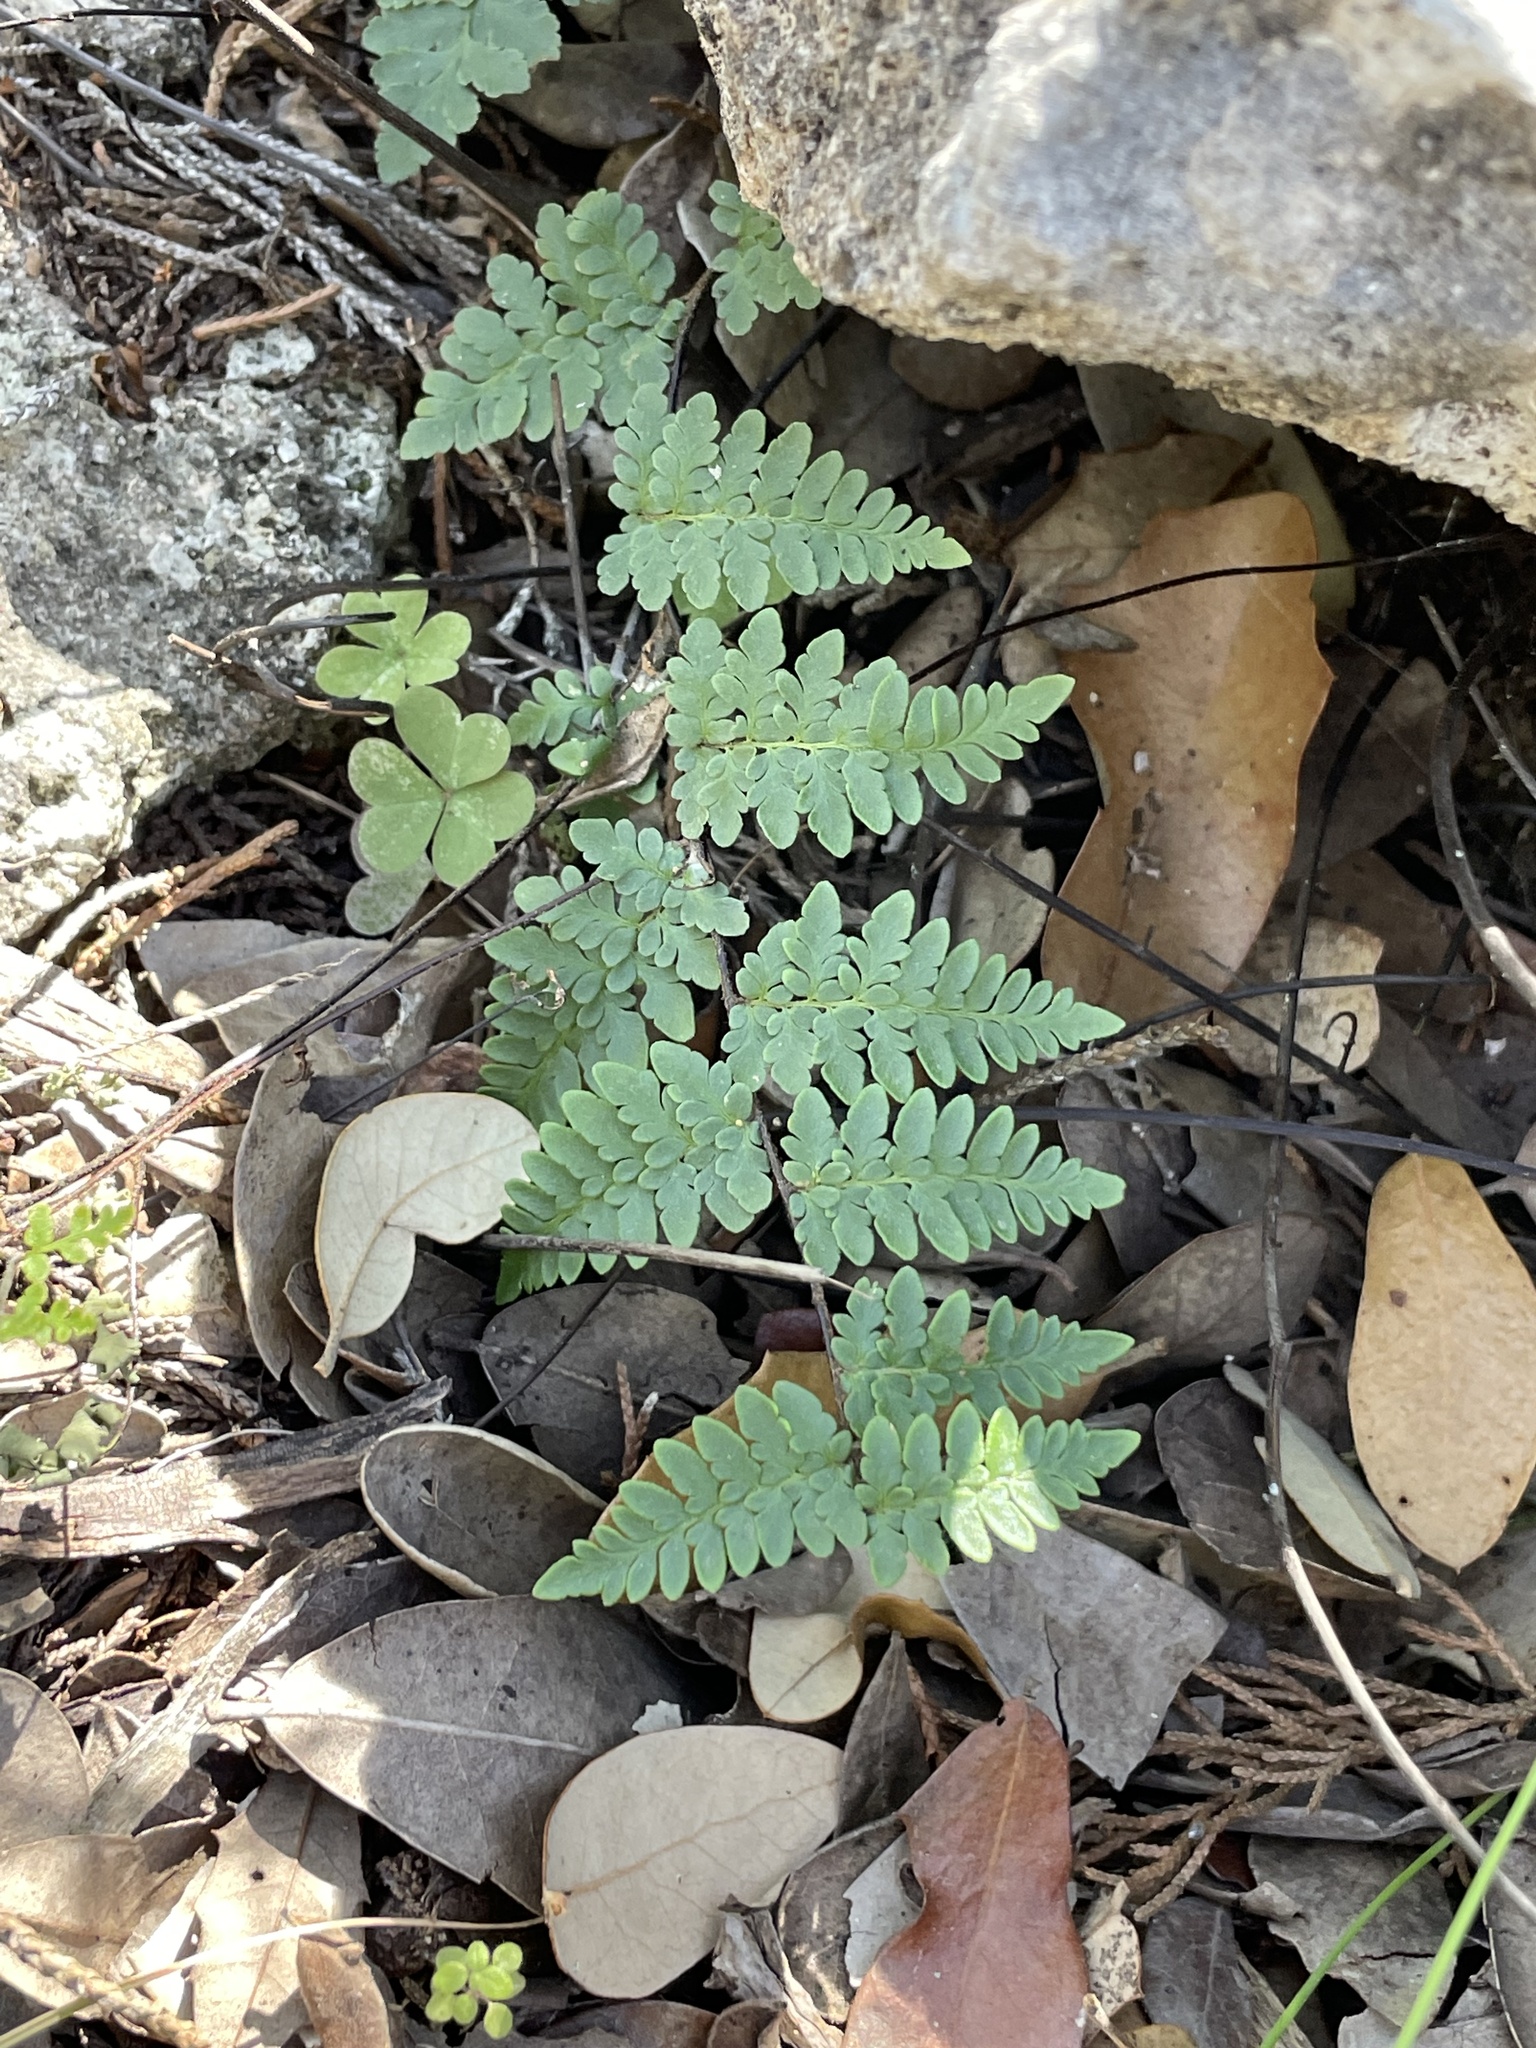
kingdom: Plantae
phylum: Tracheophyta
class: Polypodiopsida
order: Polypodiales
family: Pteridaceae
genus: Myriopteris
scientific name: Myriopteris alabamensis
